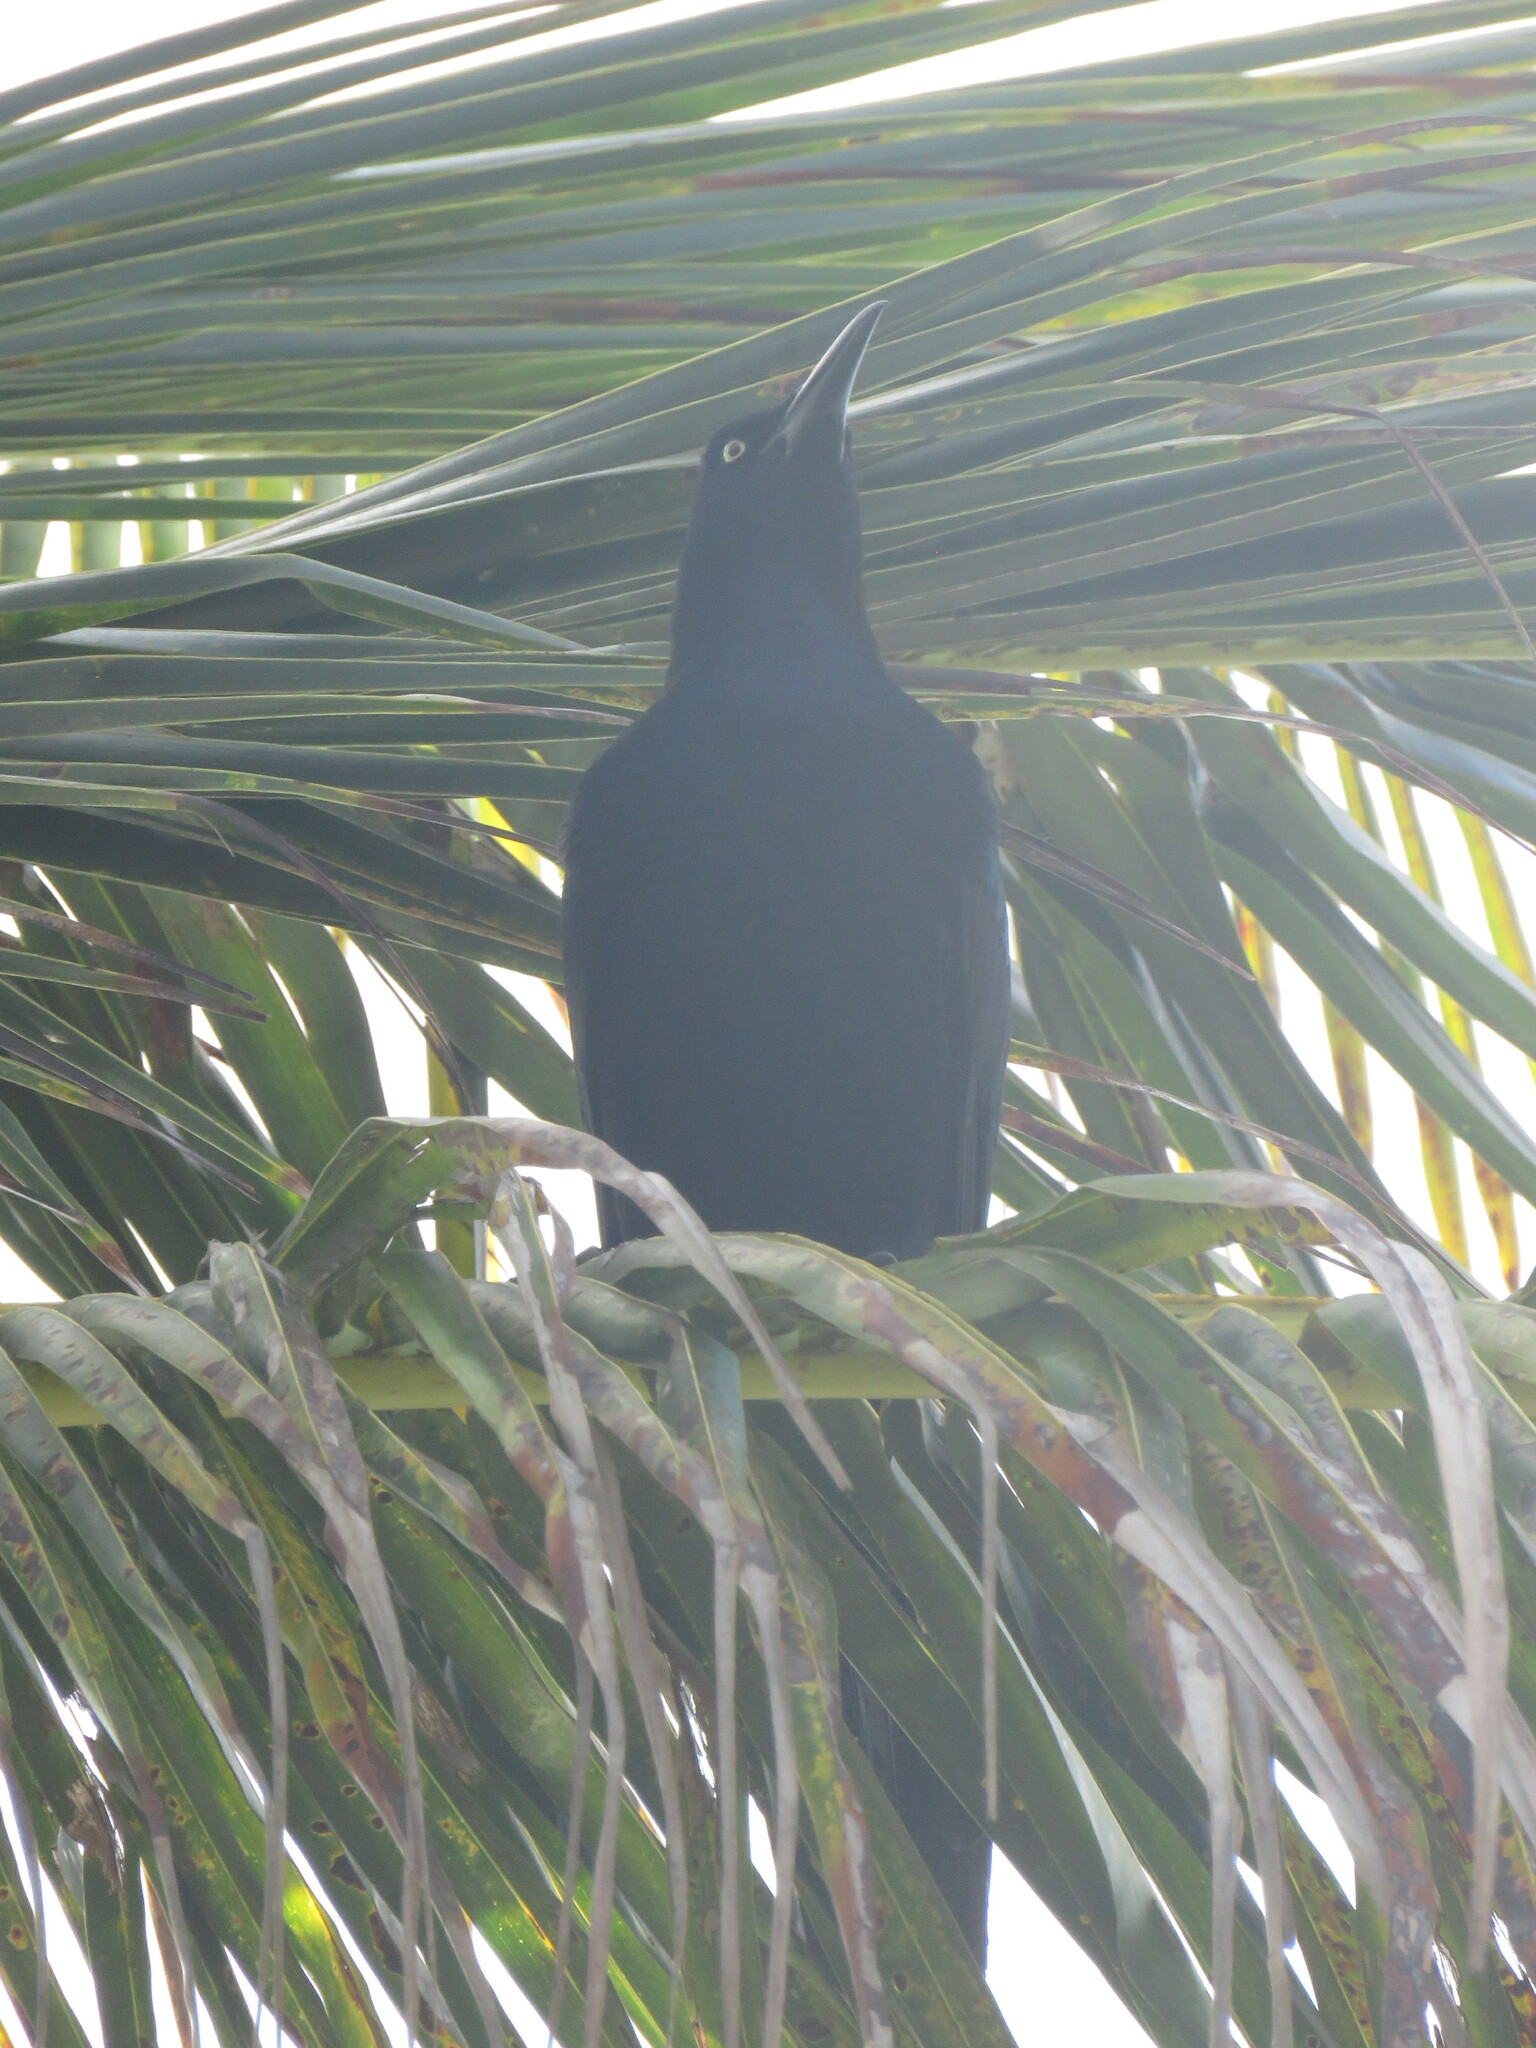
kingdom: Animalia
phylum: Chordata
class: Aves
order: Passeriformes
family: Icteridae
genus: Quiscalus
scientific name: Quiscalus mexicanus
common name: Great-tailed grackle
